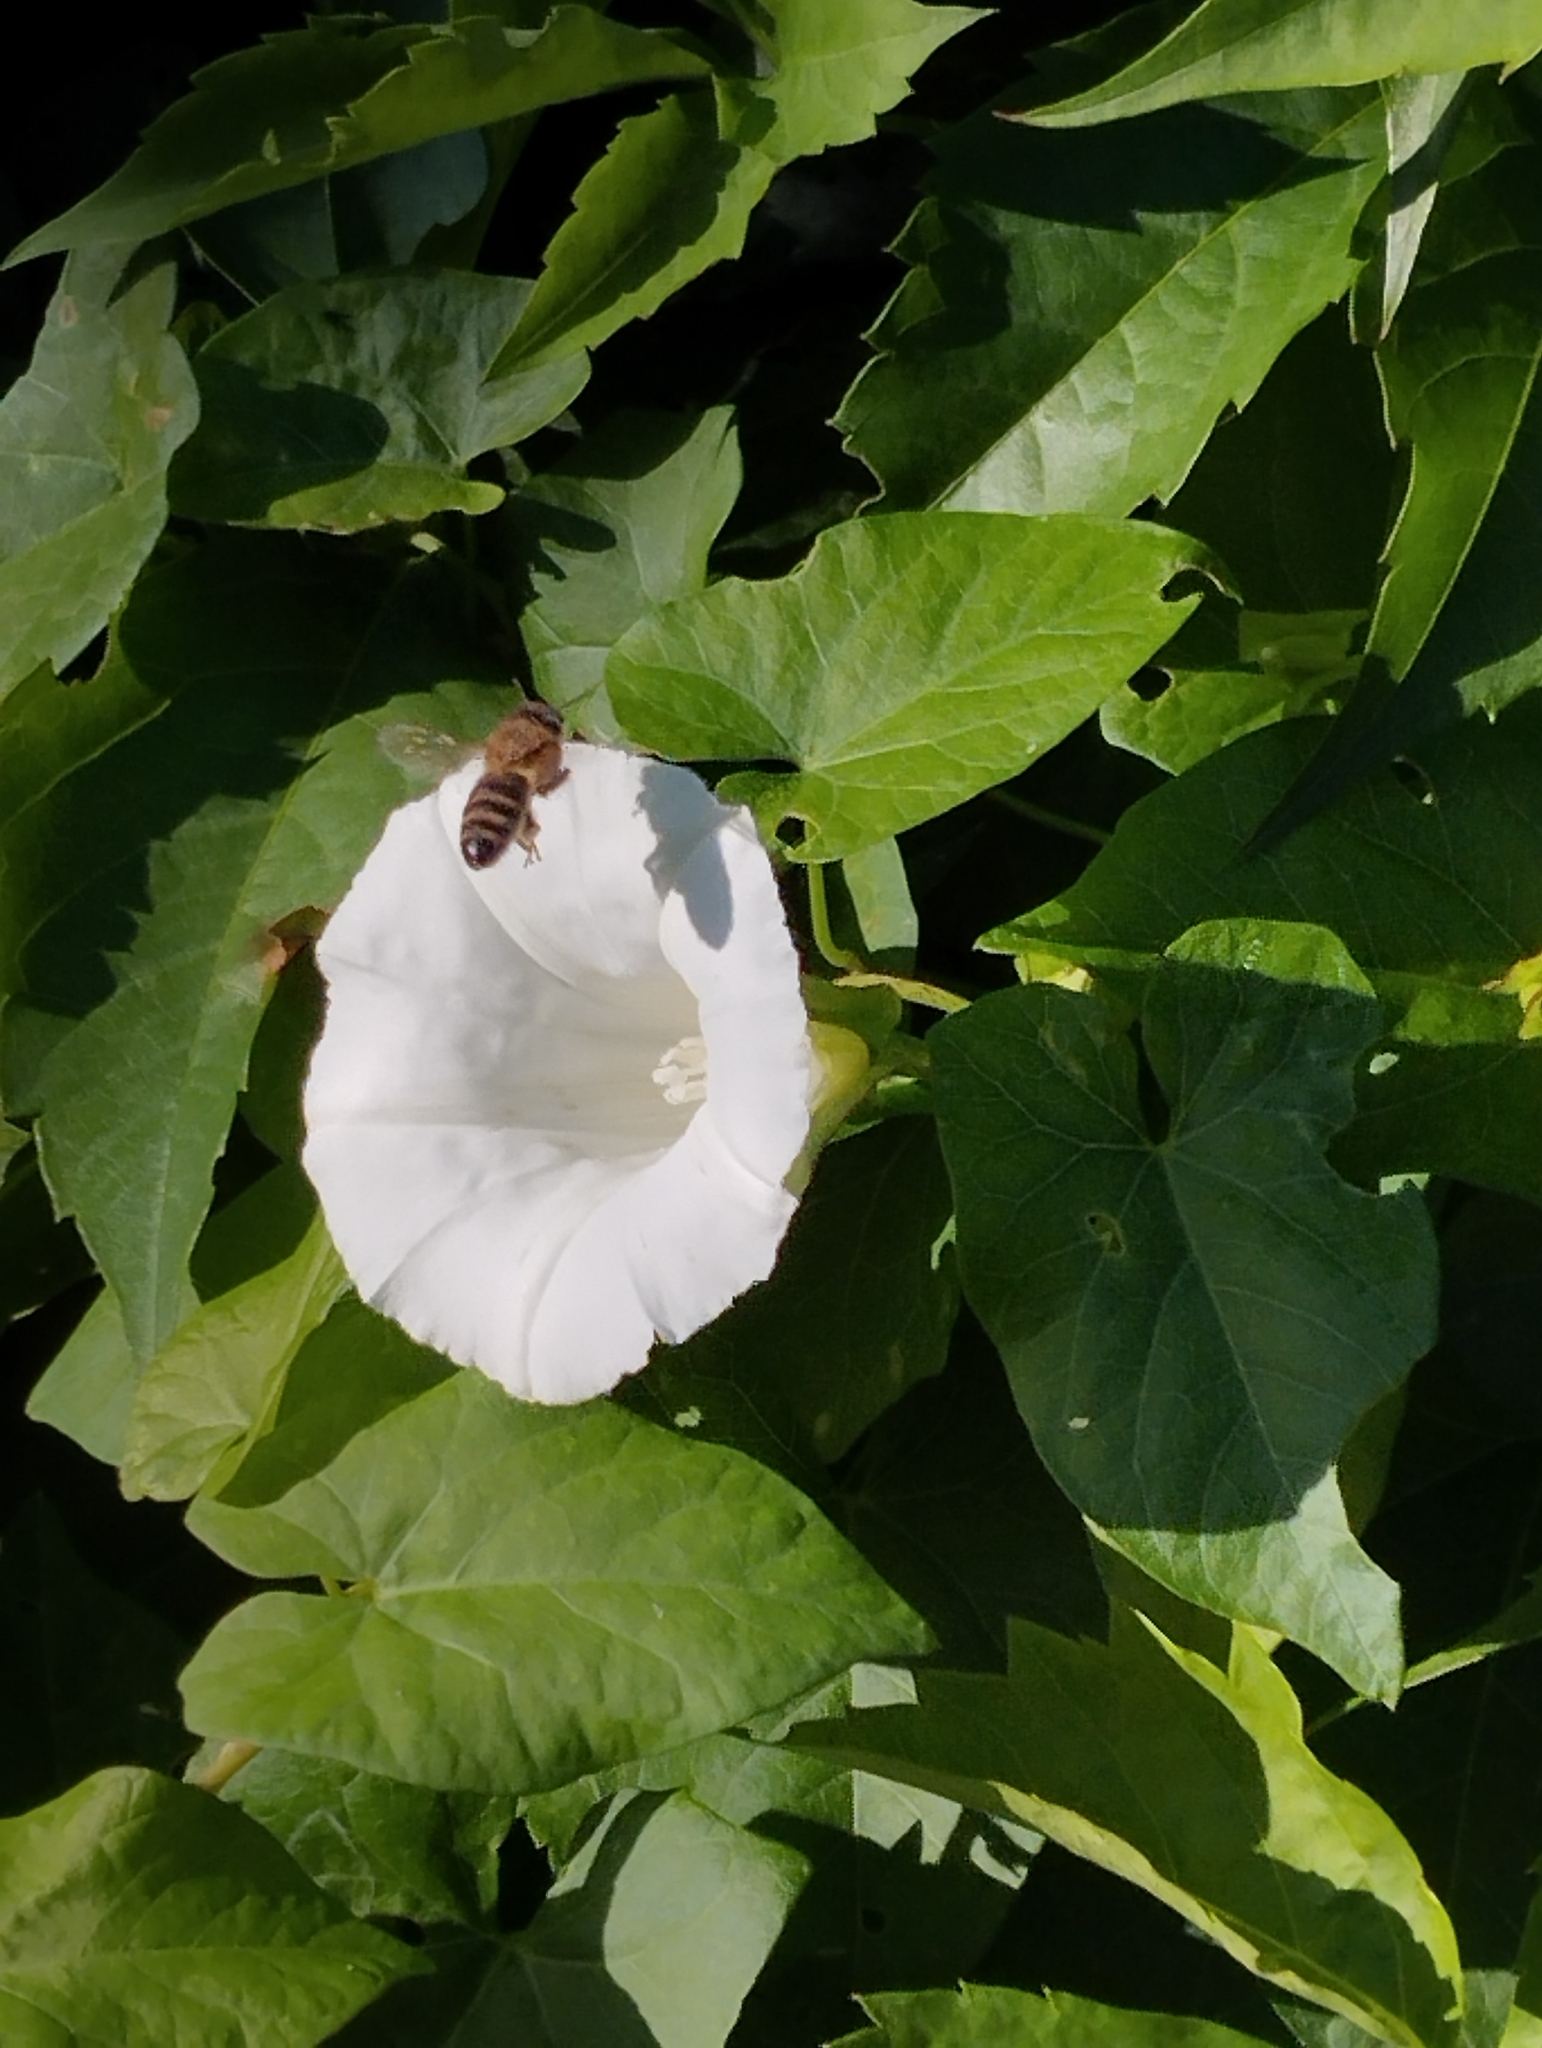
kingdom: Plantae
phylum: Tracheophyta
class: Magnoliopsida
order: Solanales
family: Convolvulaceae
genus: Calystegia
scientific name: Calystegia sepium
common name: Hedge bindweed
